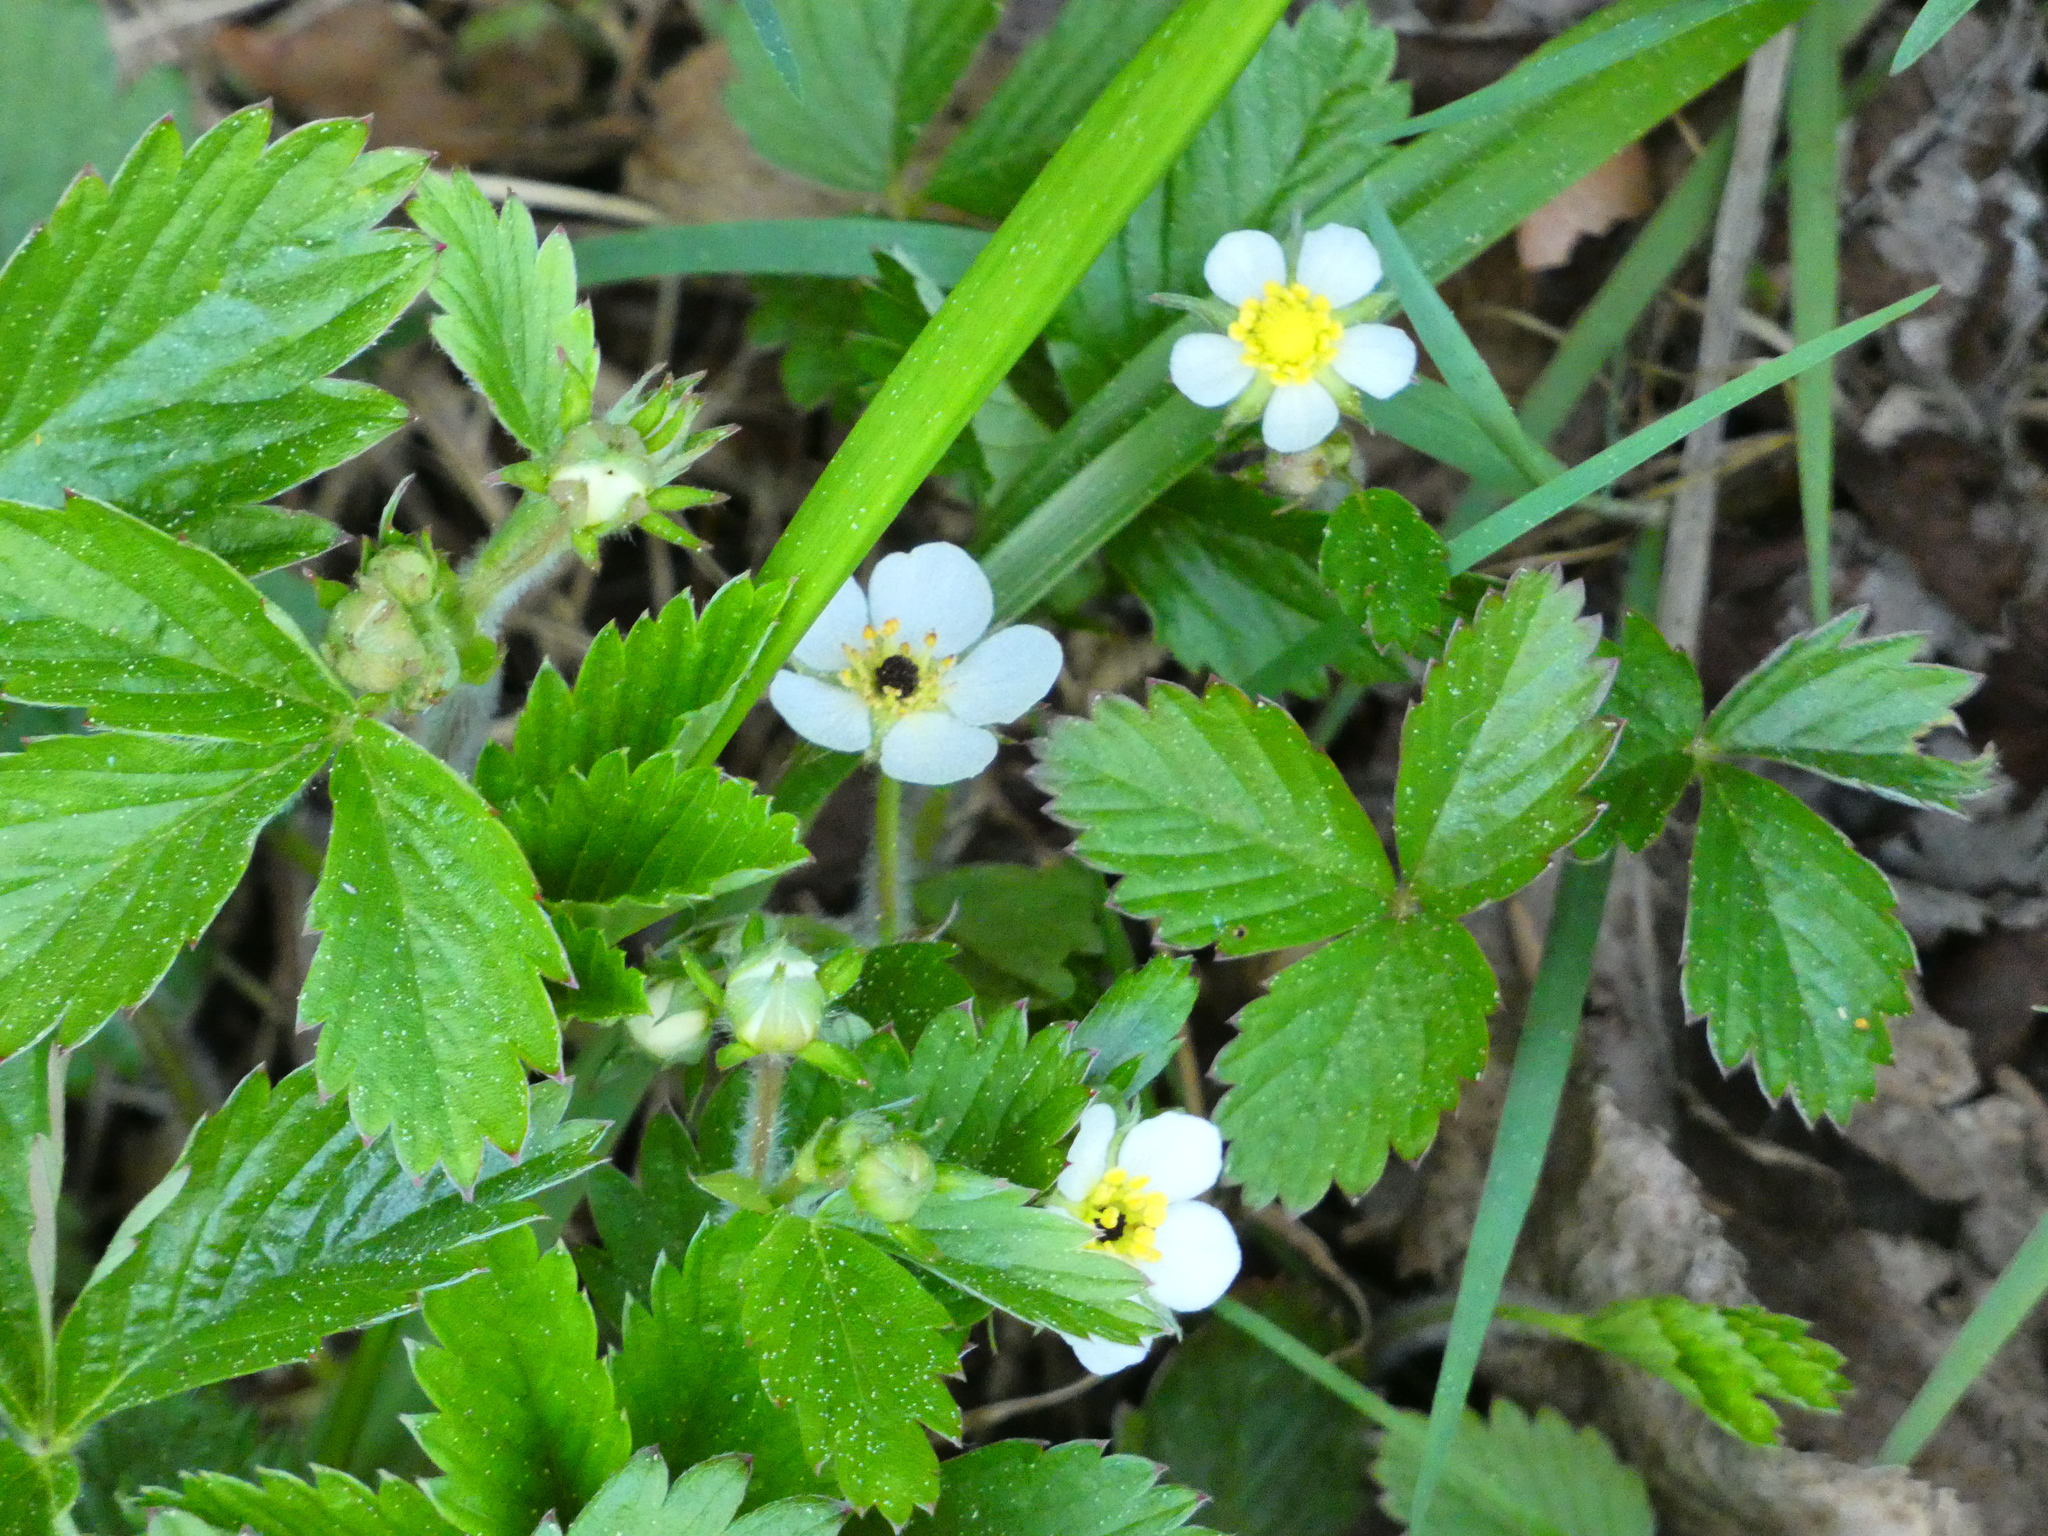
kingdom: Plantae
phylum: Tracheophyta
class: Magnoliopsida
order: Rosales
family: Rosaceae
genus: Fragaria
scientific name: Fragaria vesca
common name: Wild strawberry
